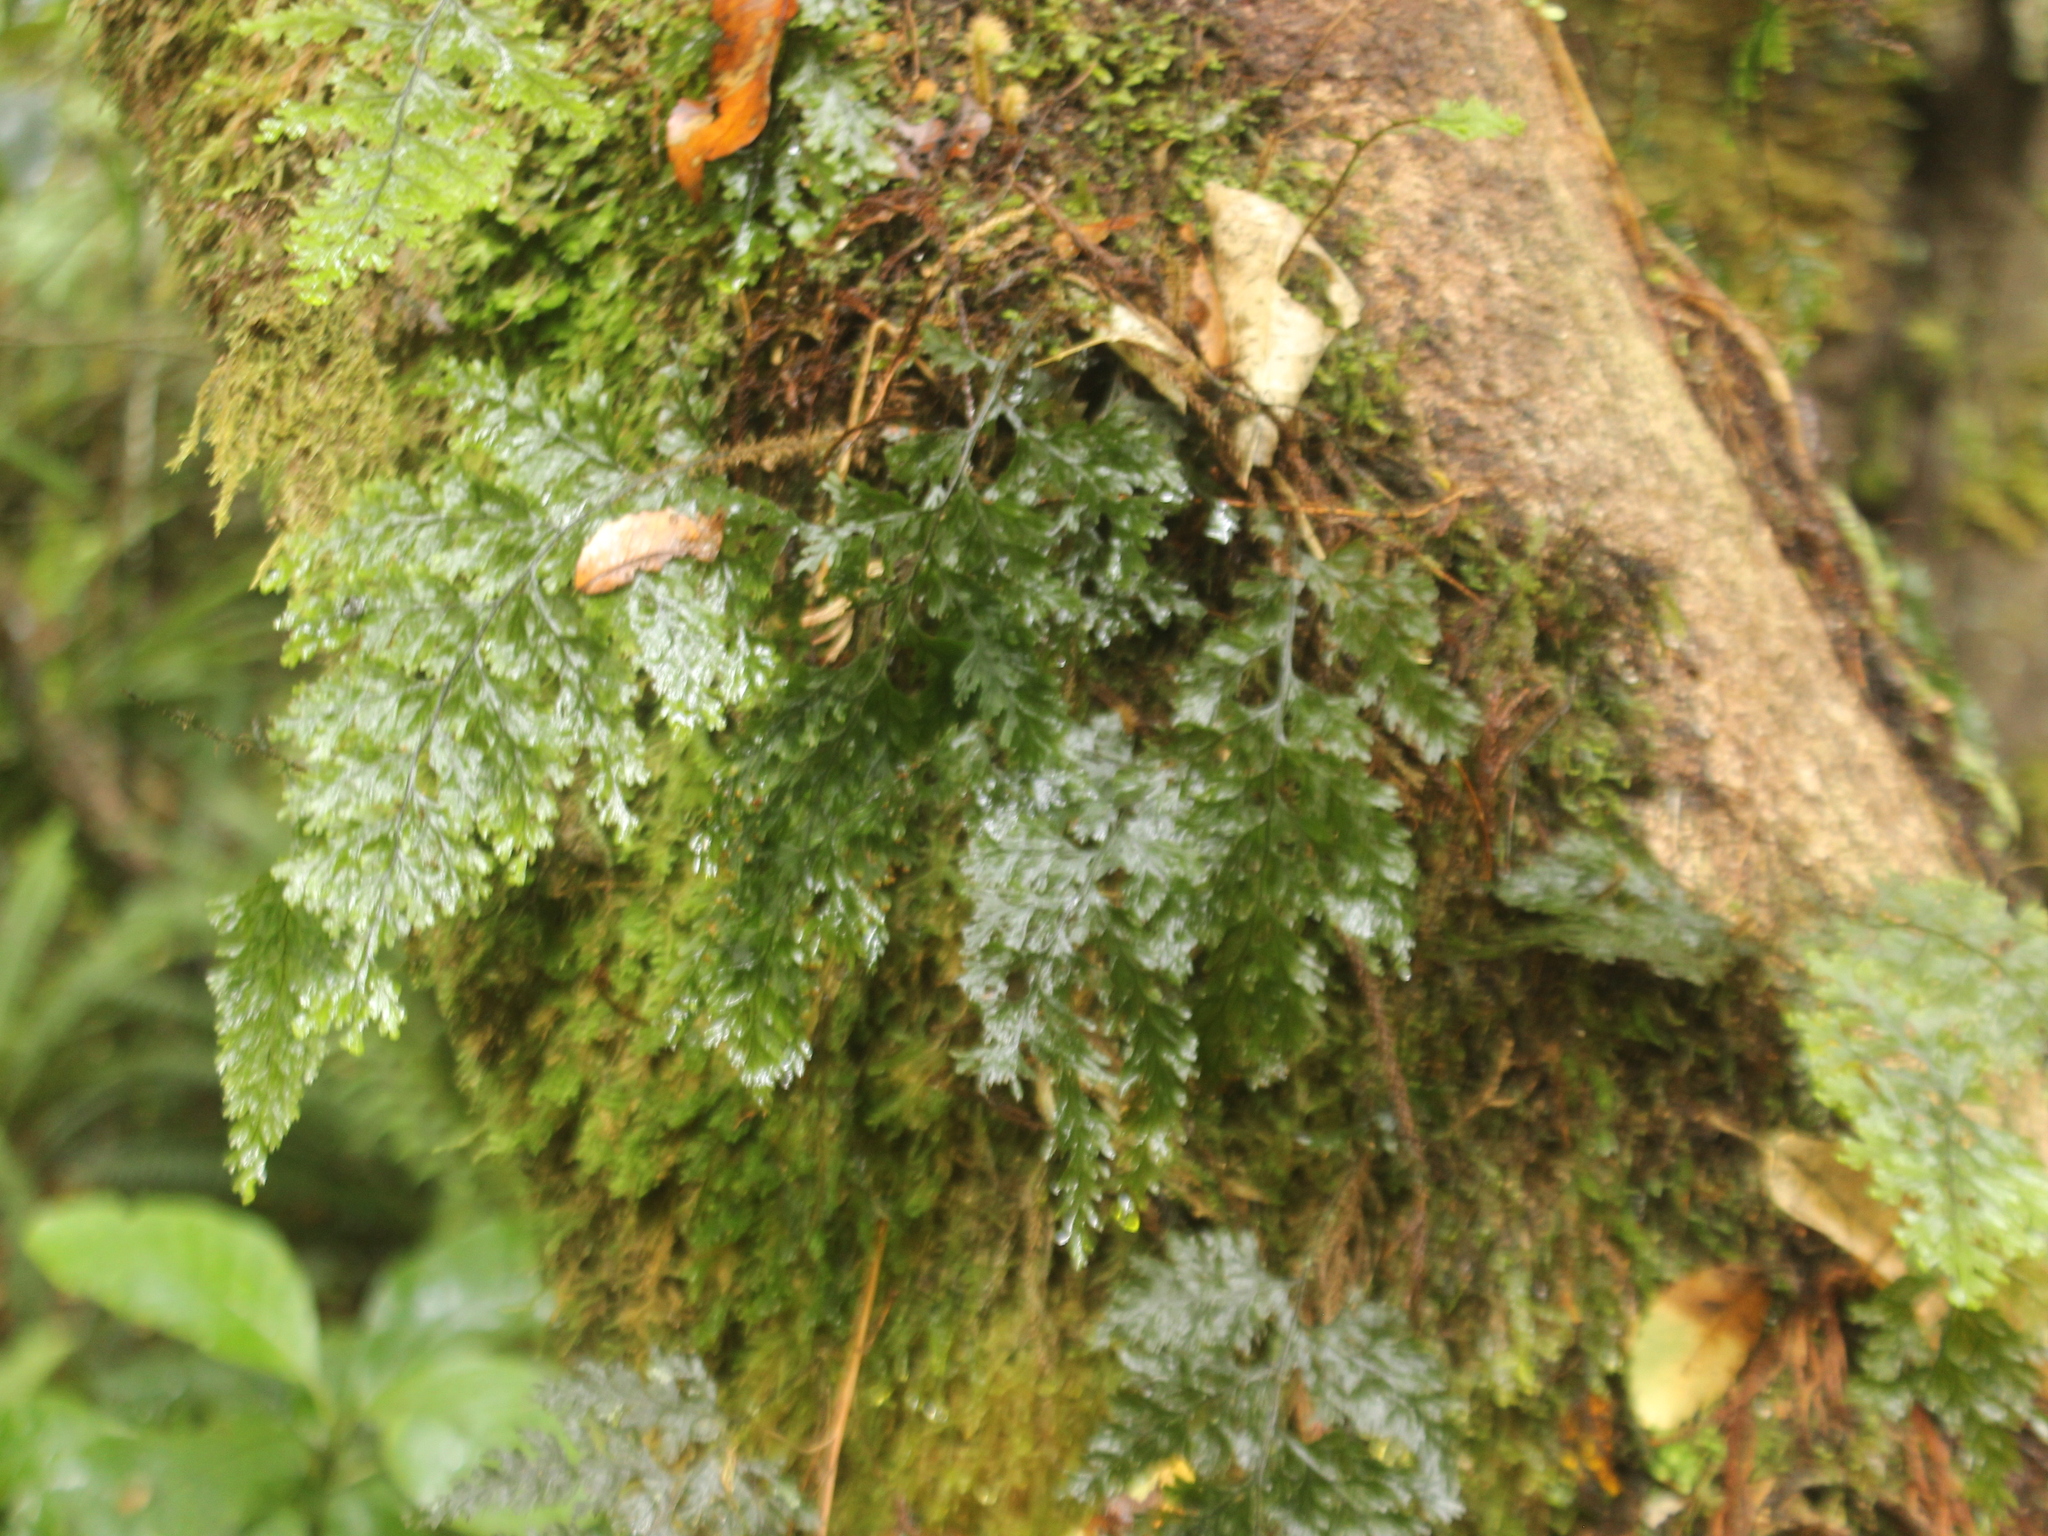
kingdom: Plantae
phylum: Tracheophyta
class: Polypodiopsida
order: Hymenophyllales
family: Hymenophyllaceae
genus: Hymenophyllum
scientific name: Hymenophyllum scabrum
